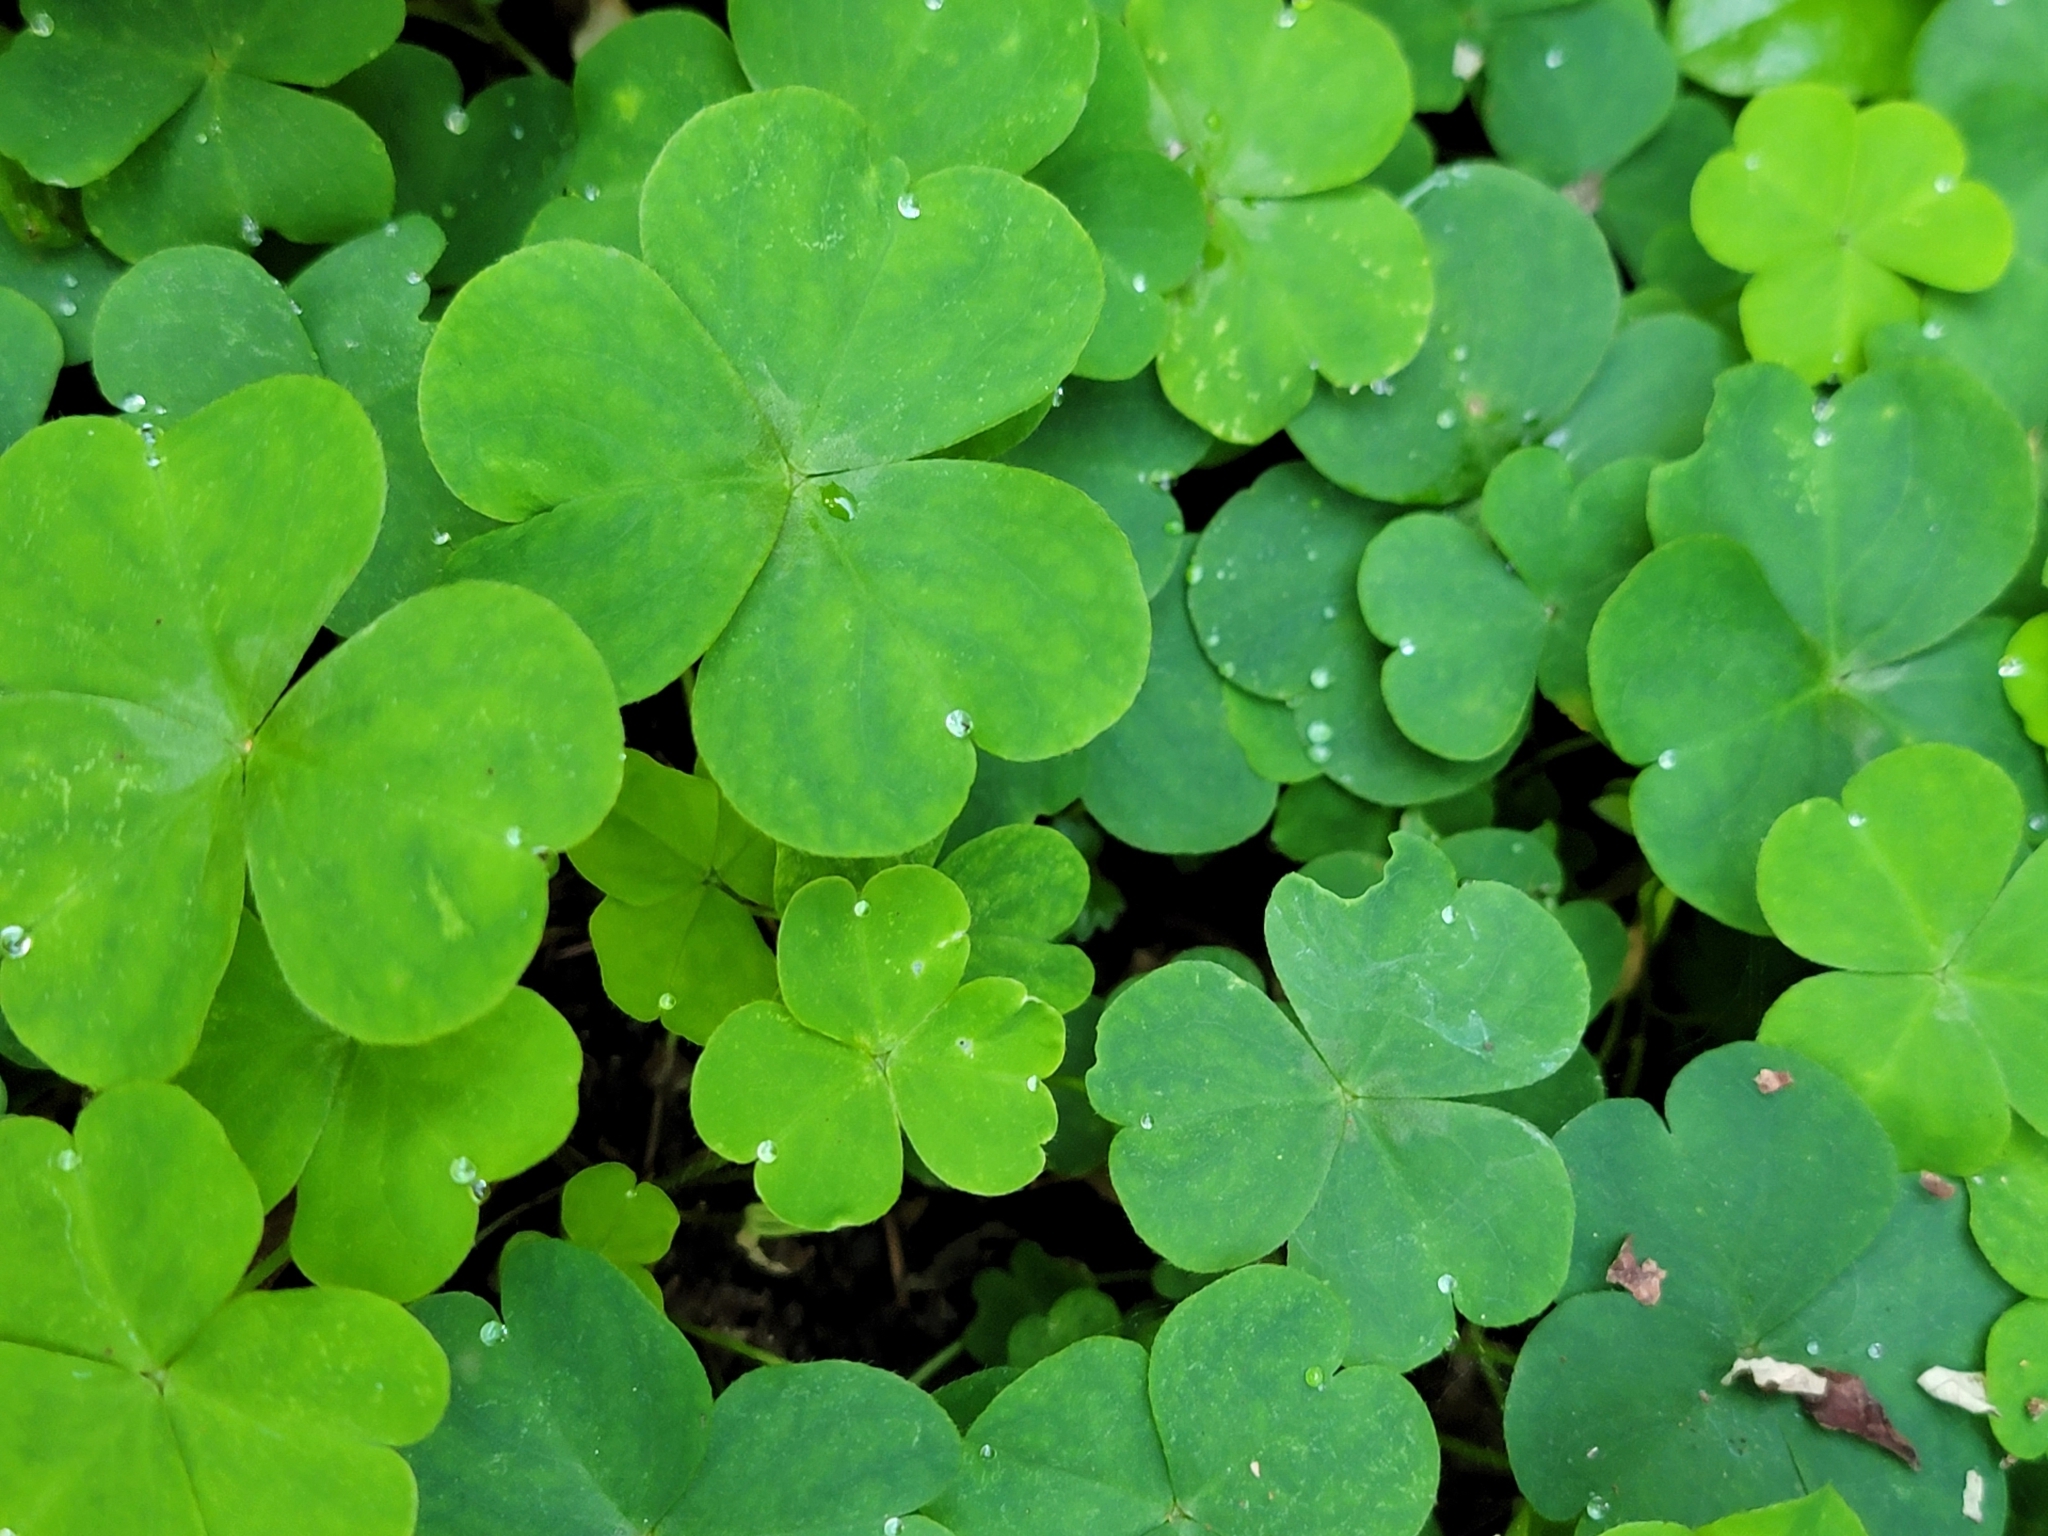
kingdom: Plantae
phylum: Tracheophyta
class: Magnoliopsida
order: Oxalidales
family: Oxalidaceae
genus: Oxalis
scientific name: Oxalis debilis
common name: Large-flowered pink-sorrel
